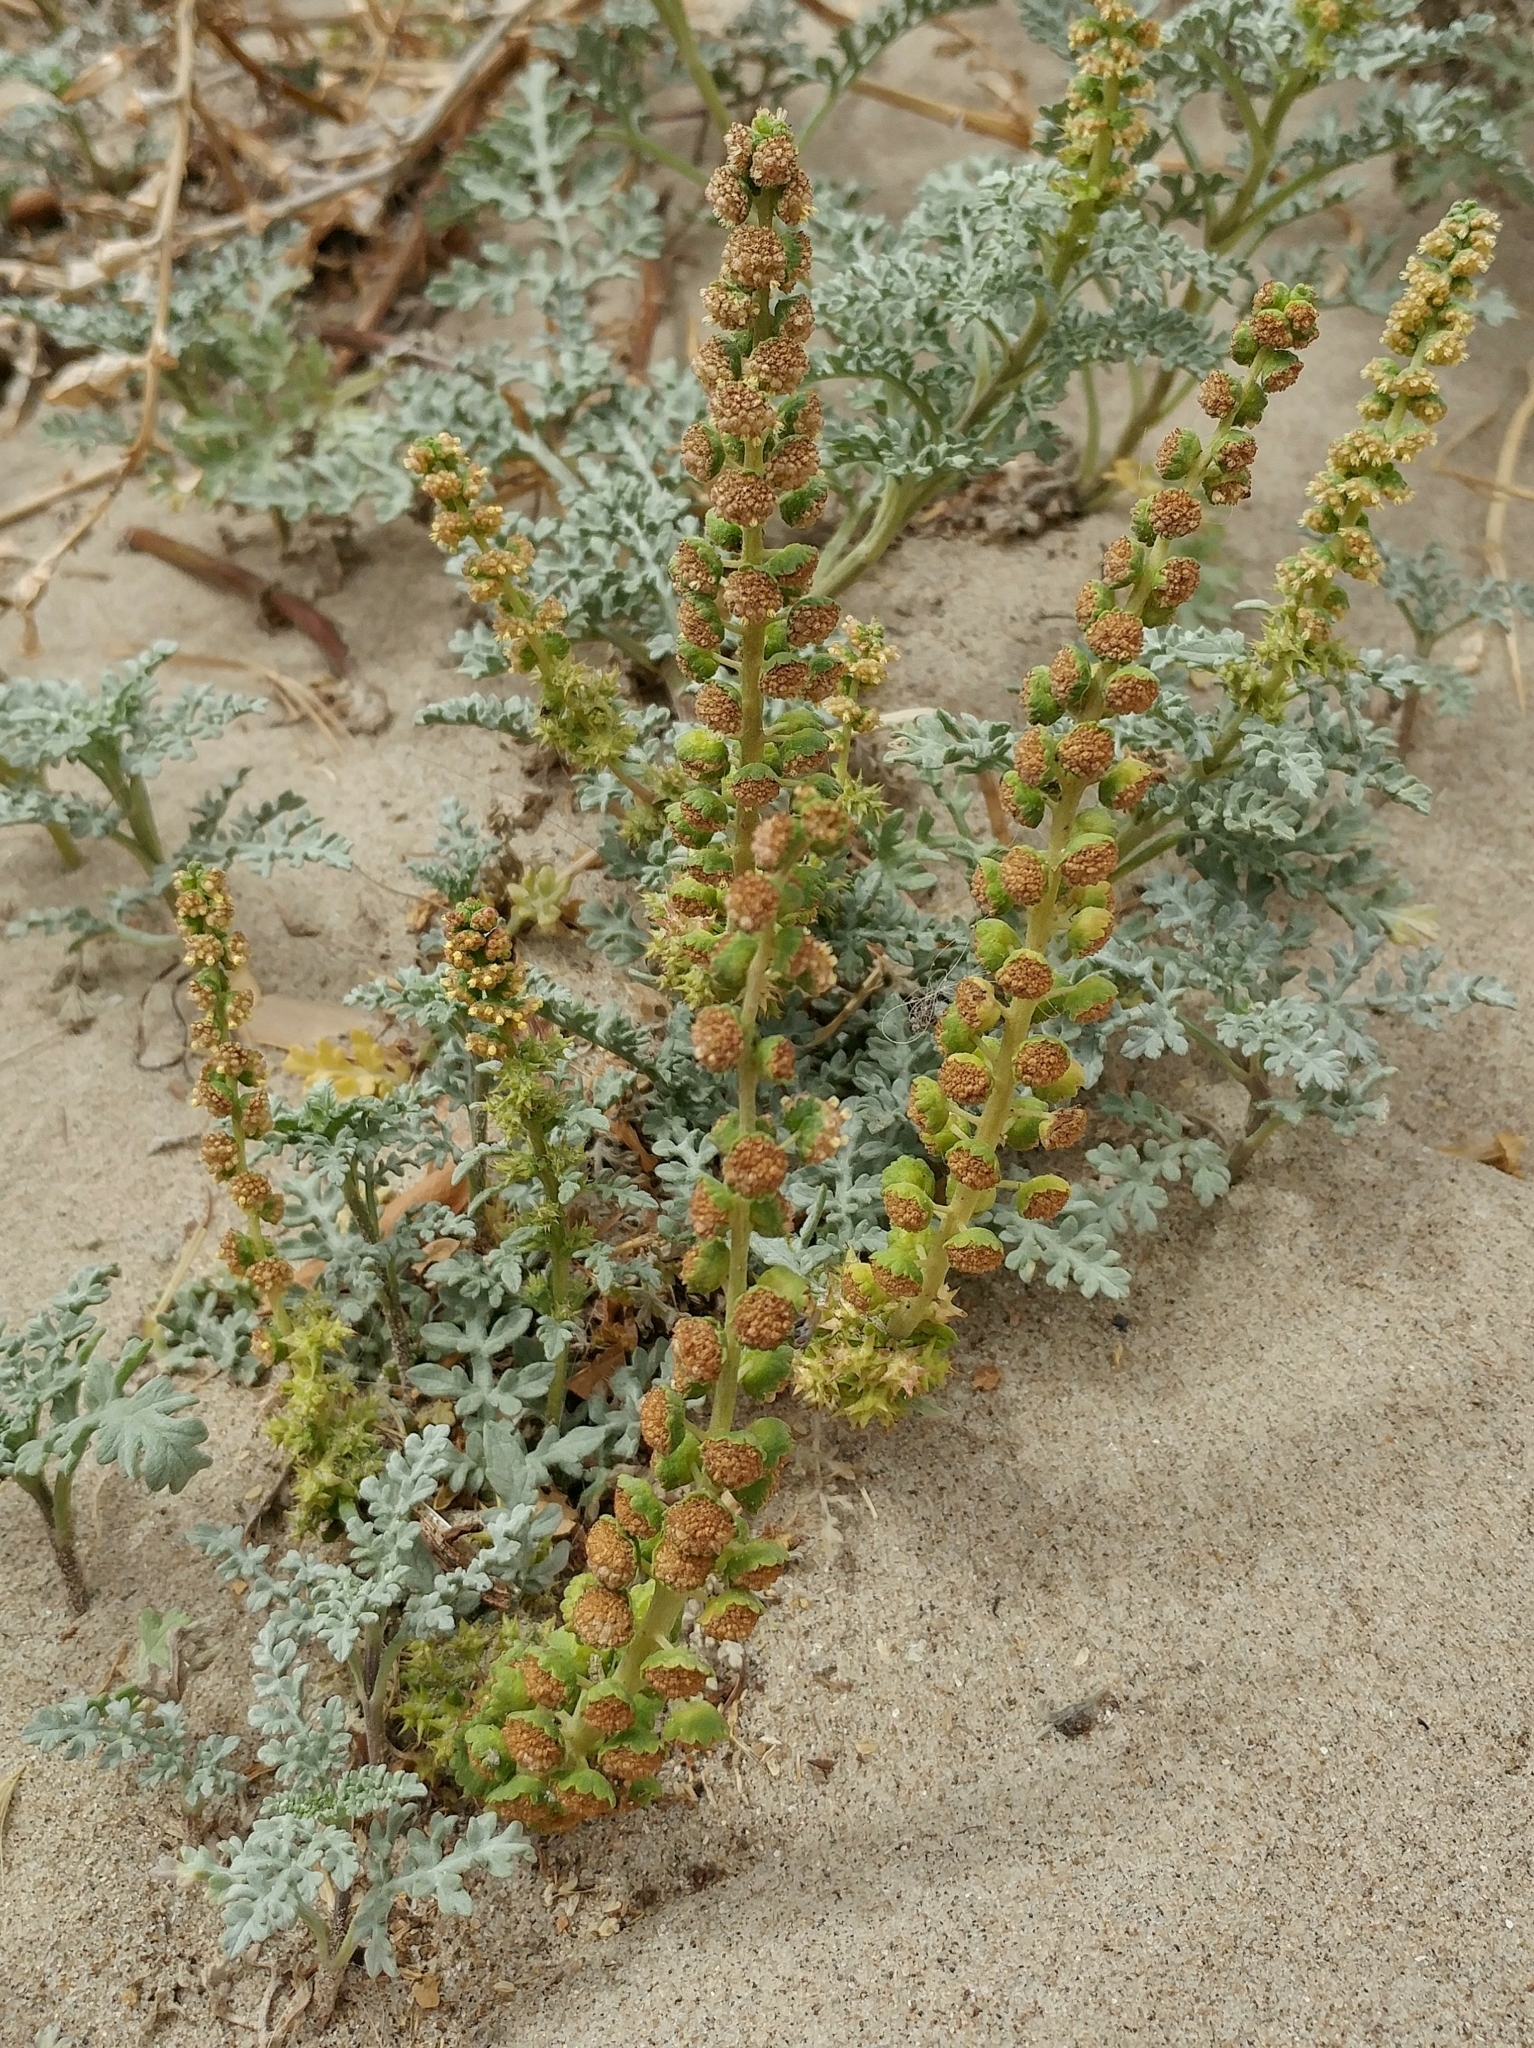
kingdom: Plantae
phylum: Tracheophyta
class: Magnoliopsida
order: Asterales
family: Asteraceae
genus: Ambrosia
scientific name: Ambrosia chamissonis
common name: Beachbur
